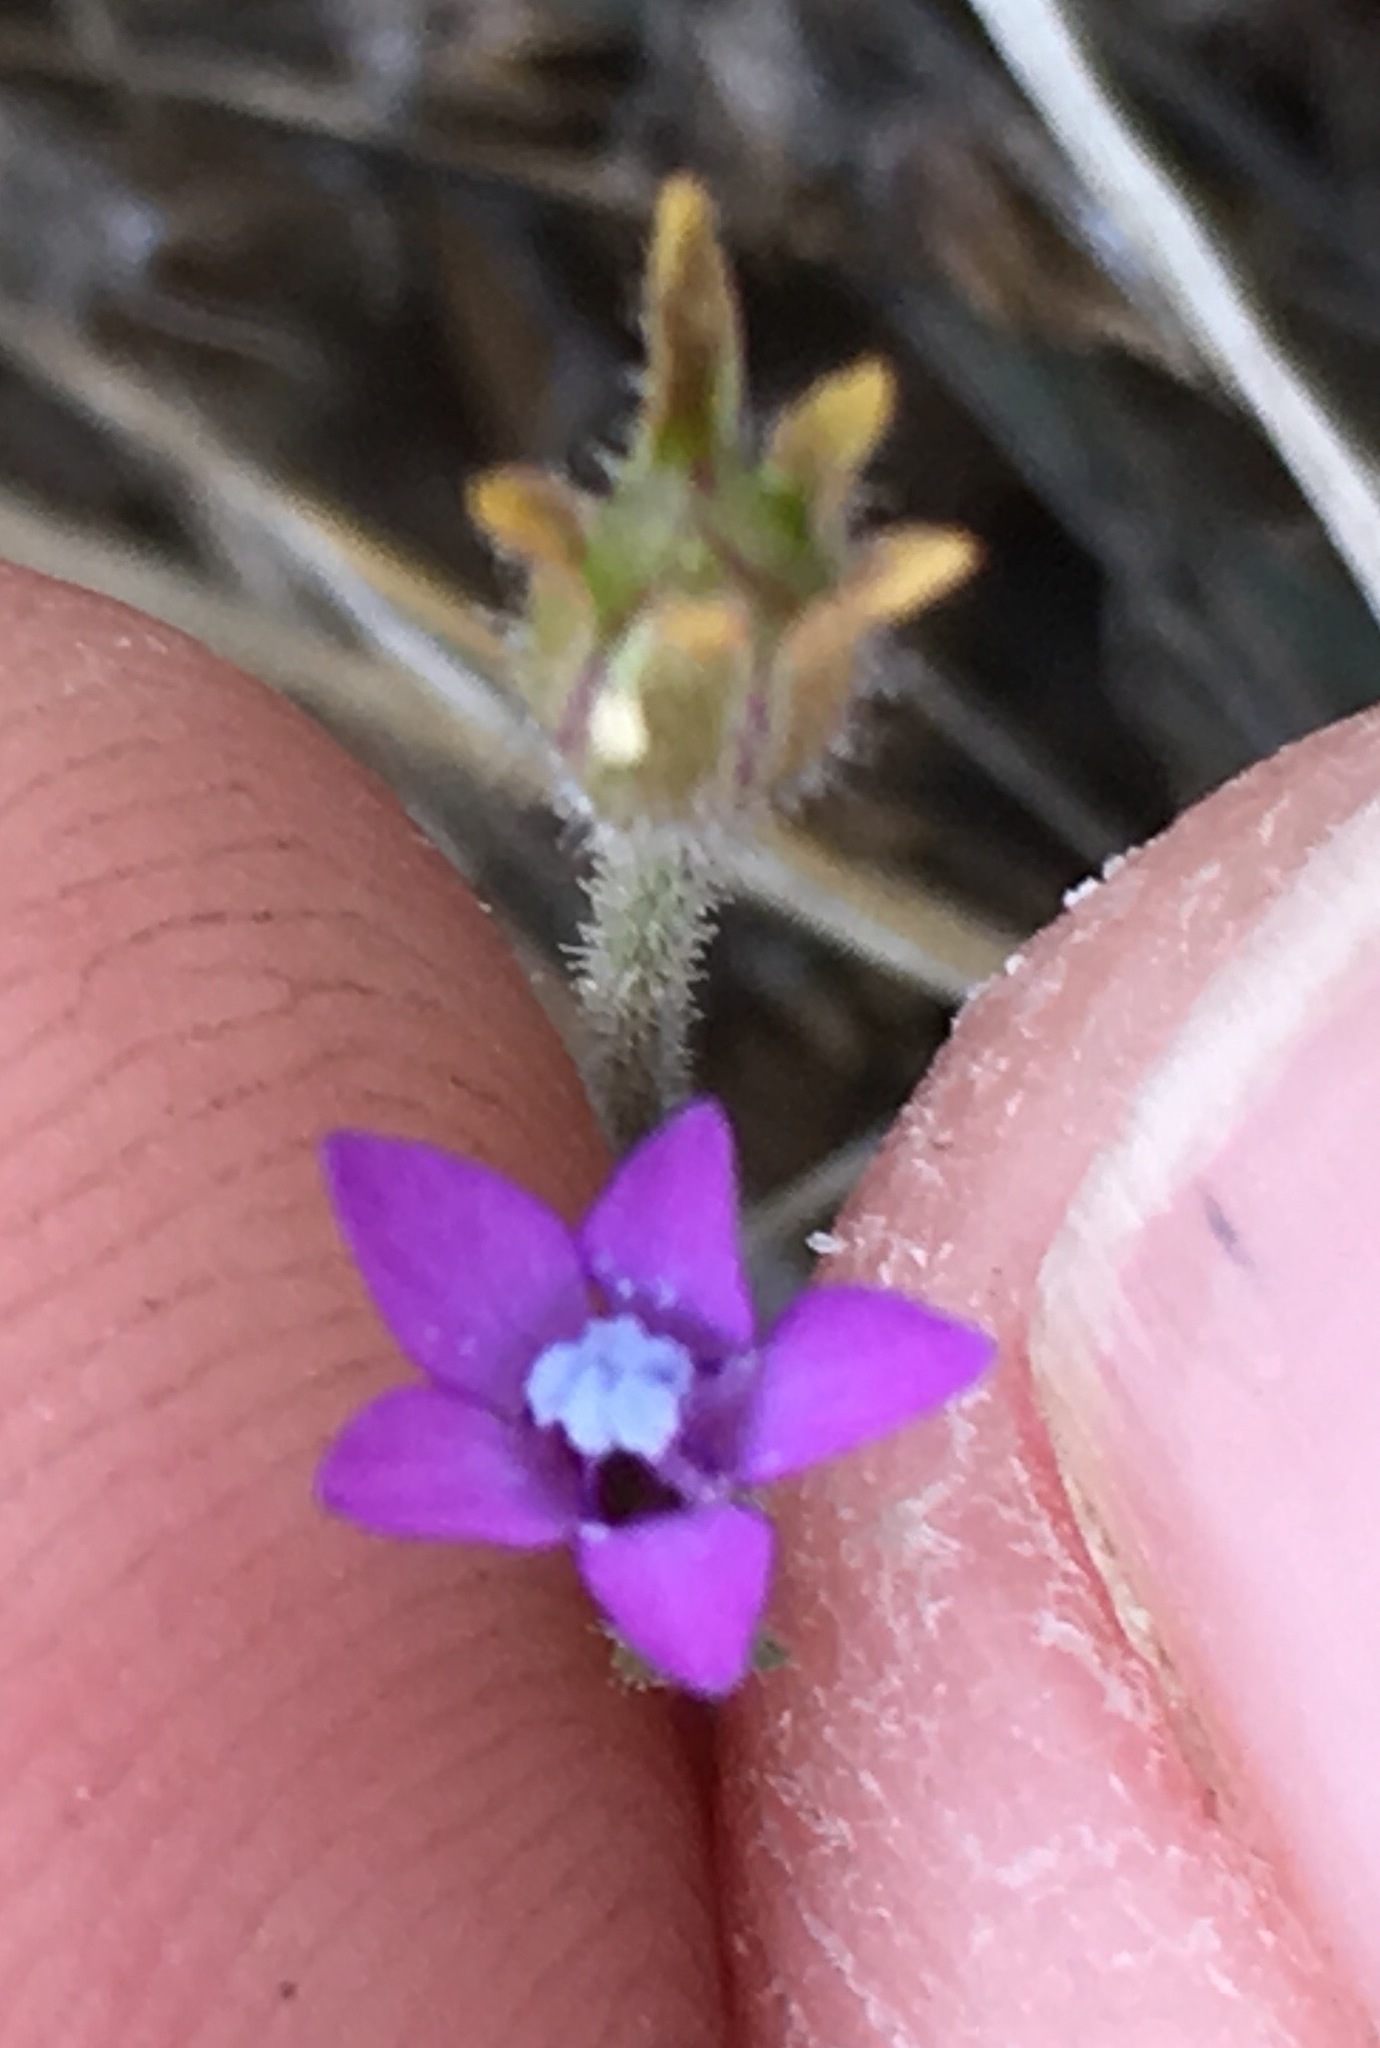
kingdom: Plantae
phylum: Tracheophyta
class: Magnoliopsida
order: Ericales
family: Polemoniaceae
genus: Gilia
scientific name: Gilia nevinii
